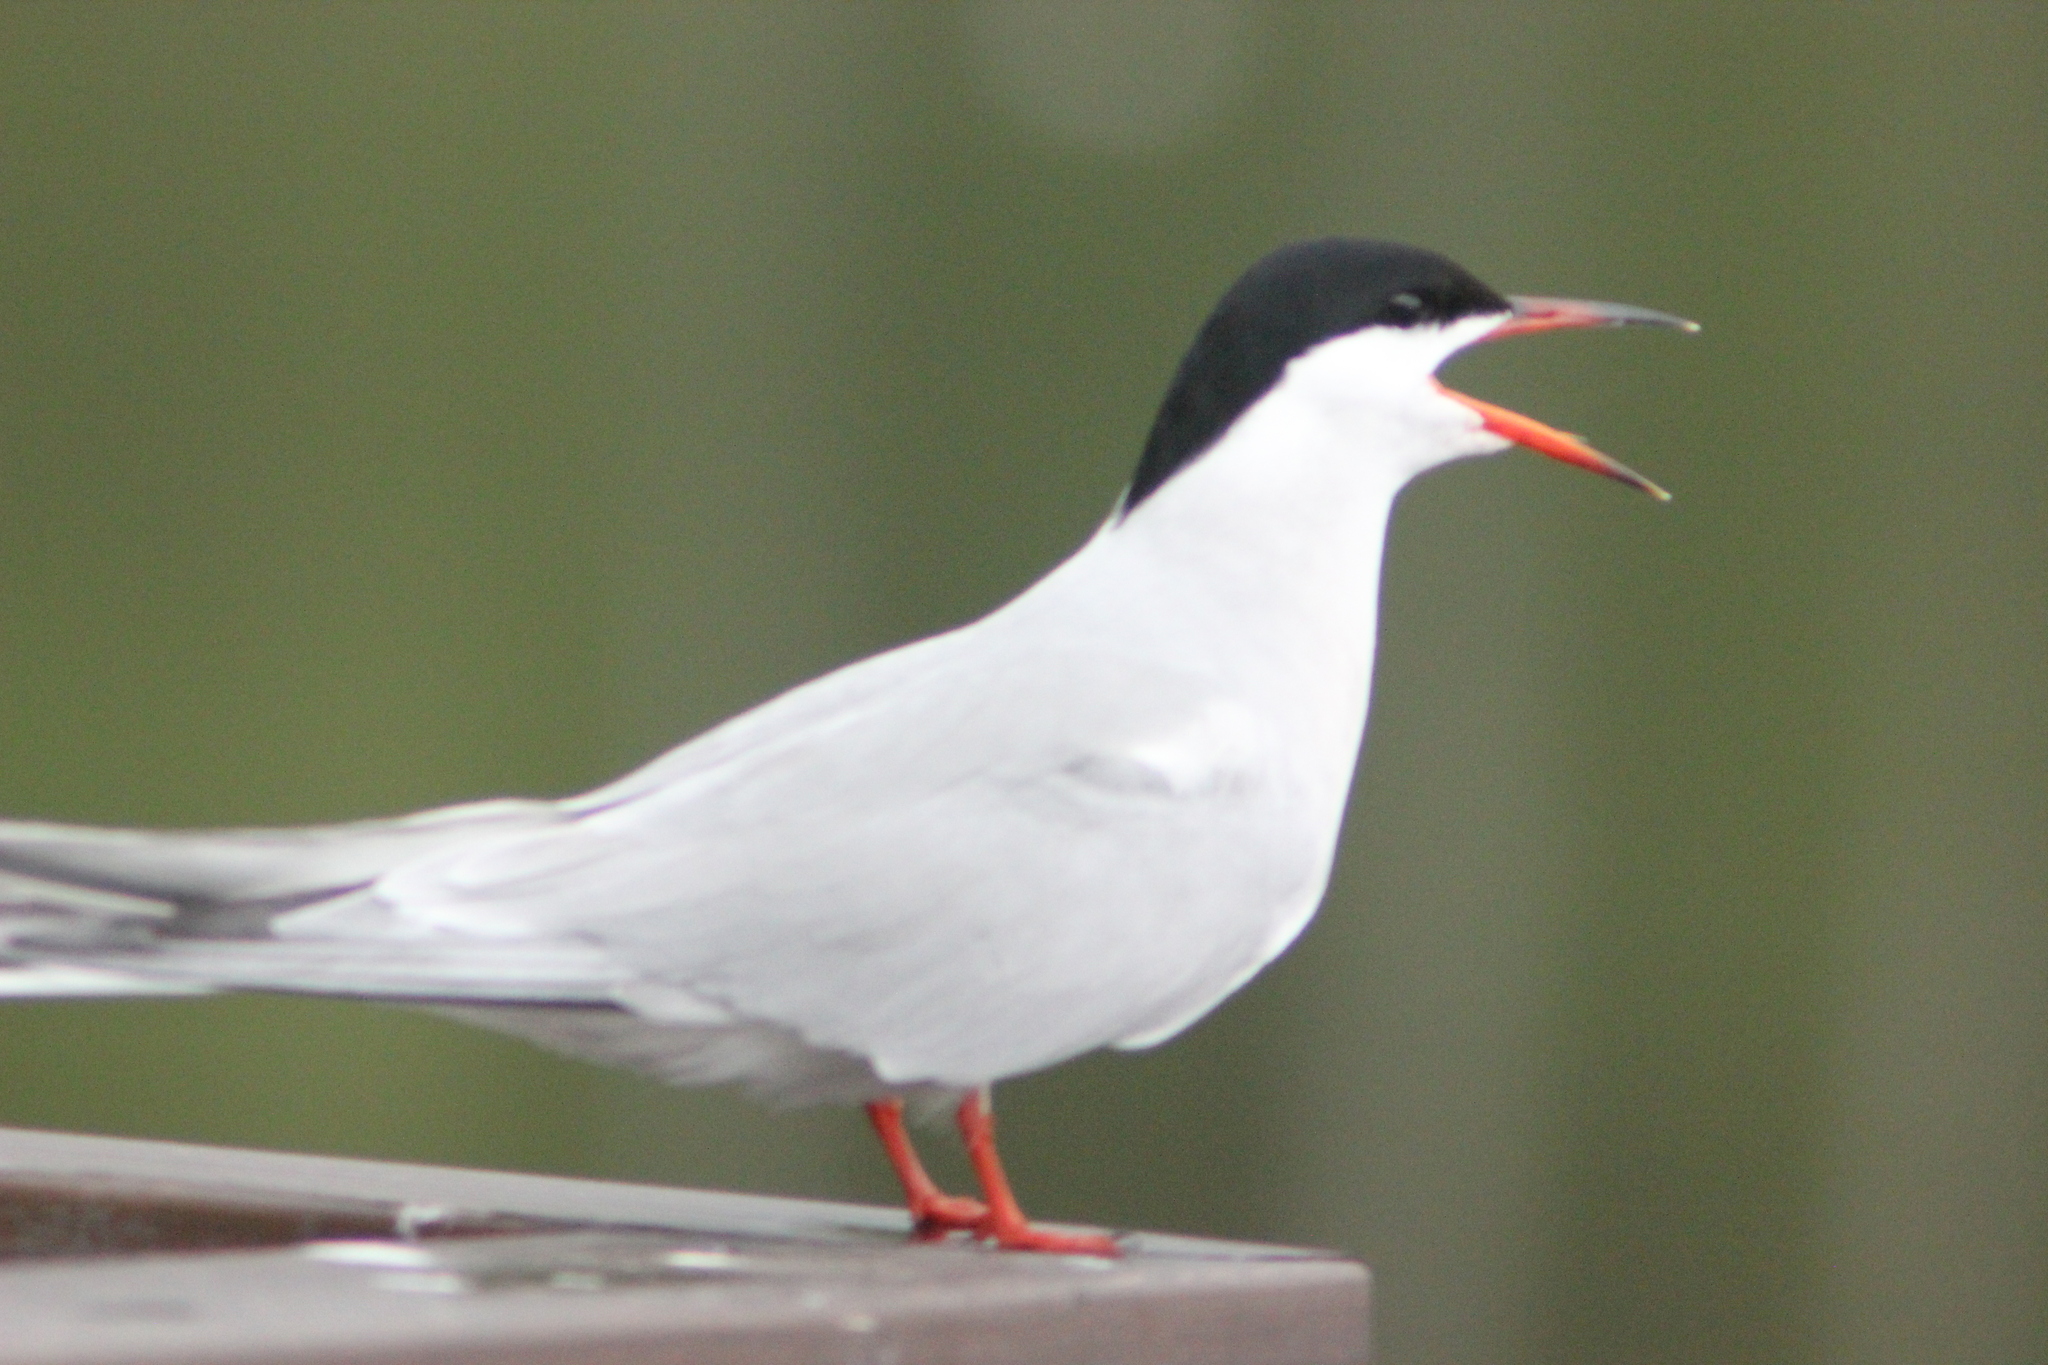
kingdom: Animalia
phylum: Chordata
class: Aves
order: Charadriiformes
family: Laridae
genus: Sterna
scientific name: Sterna hirundo
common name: Common tern
